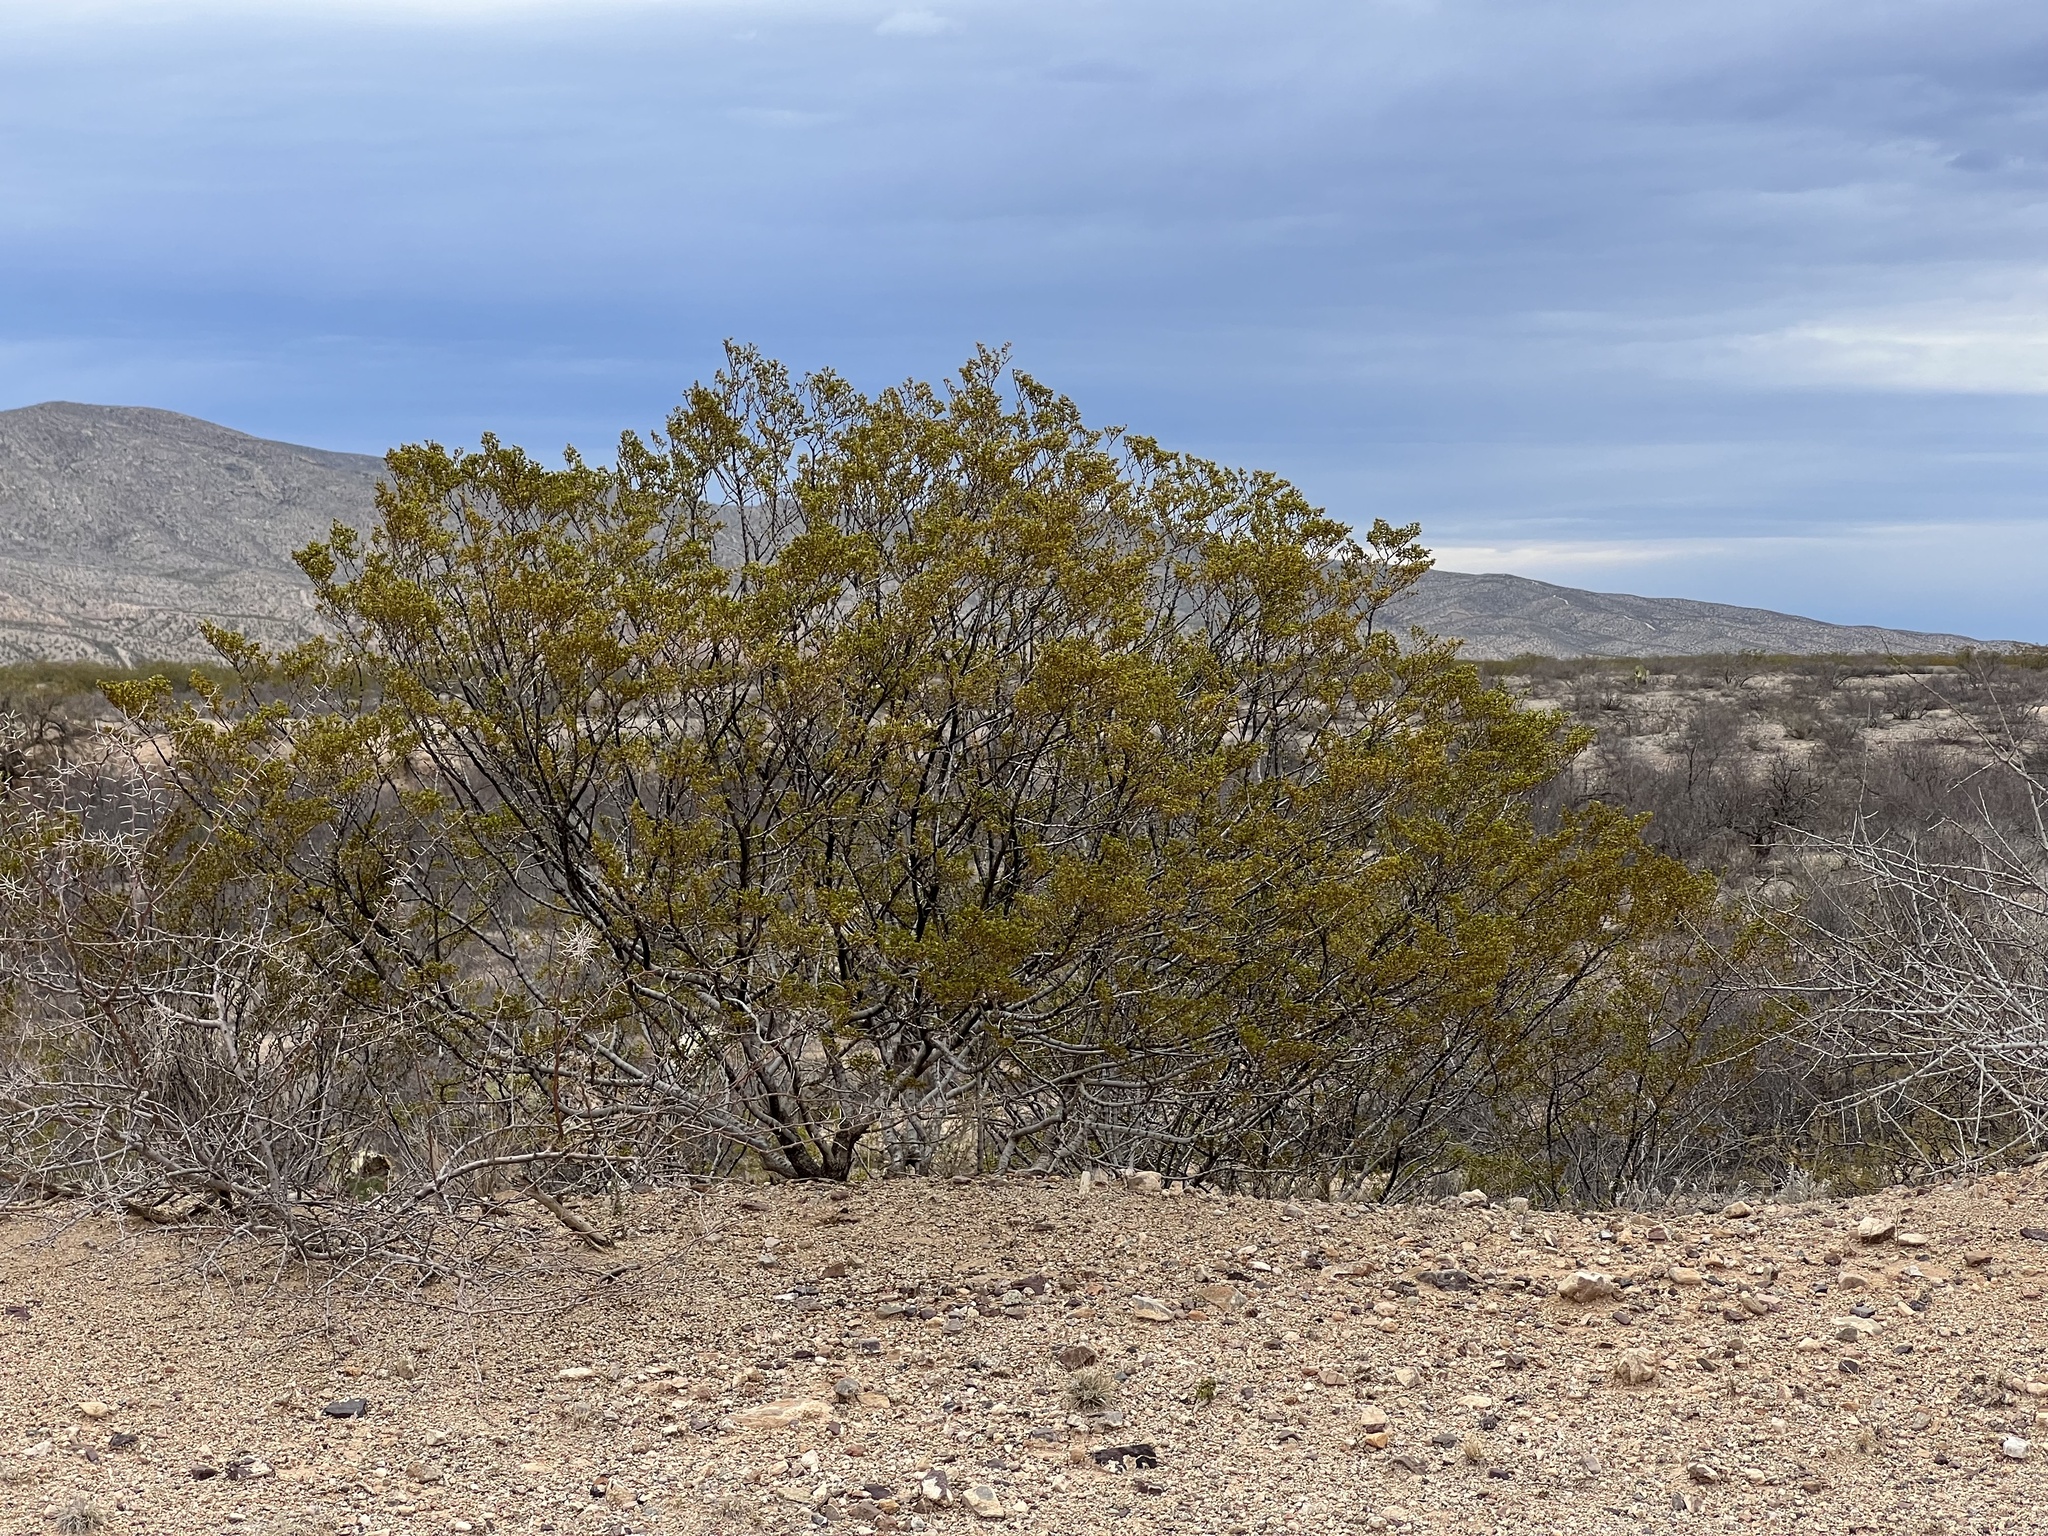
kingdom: Plantae
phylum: Tracheophyta
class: Magnoliopsida
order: Zygophyllales
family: Zygophyllaceae
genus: Larrea
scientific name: Larrea tridentata
